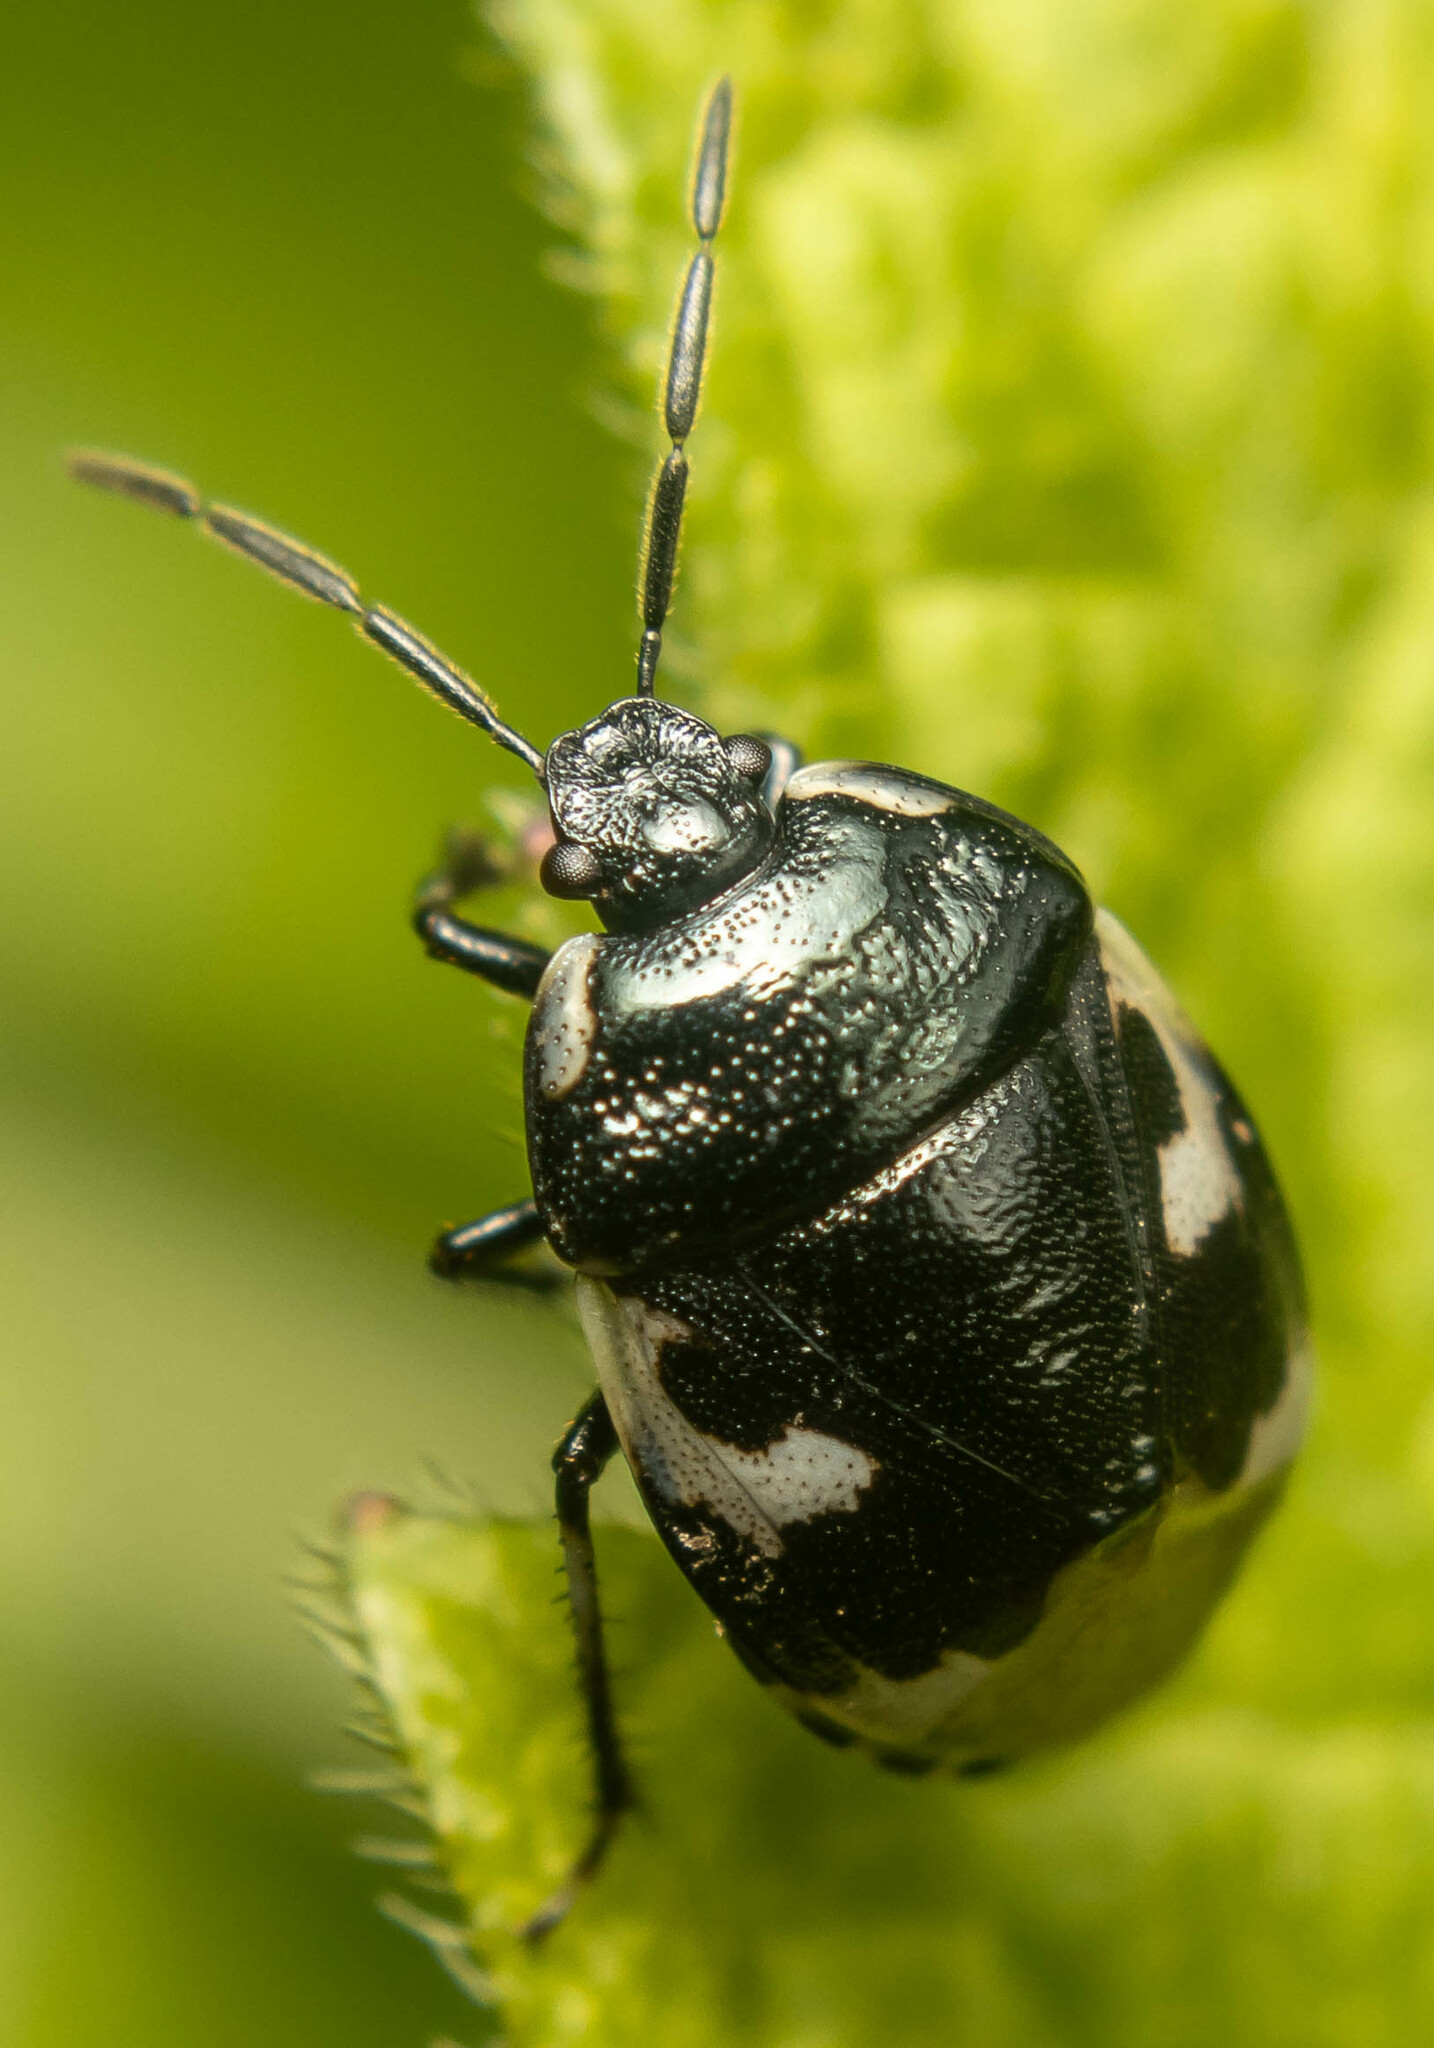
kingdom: Animalia
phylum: Arthropoda
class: Insecta
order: Hemiptera
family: Cydnidae
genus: Tritomegas
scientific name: Tritomegas bicolor
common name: Pied shieldbug
